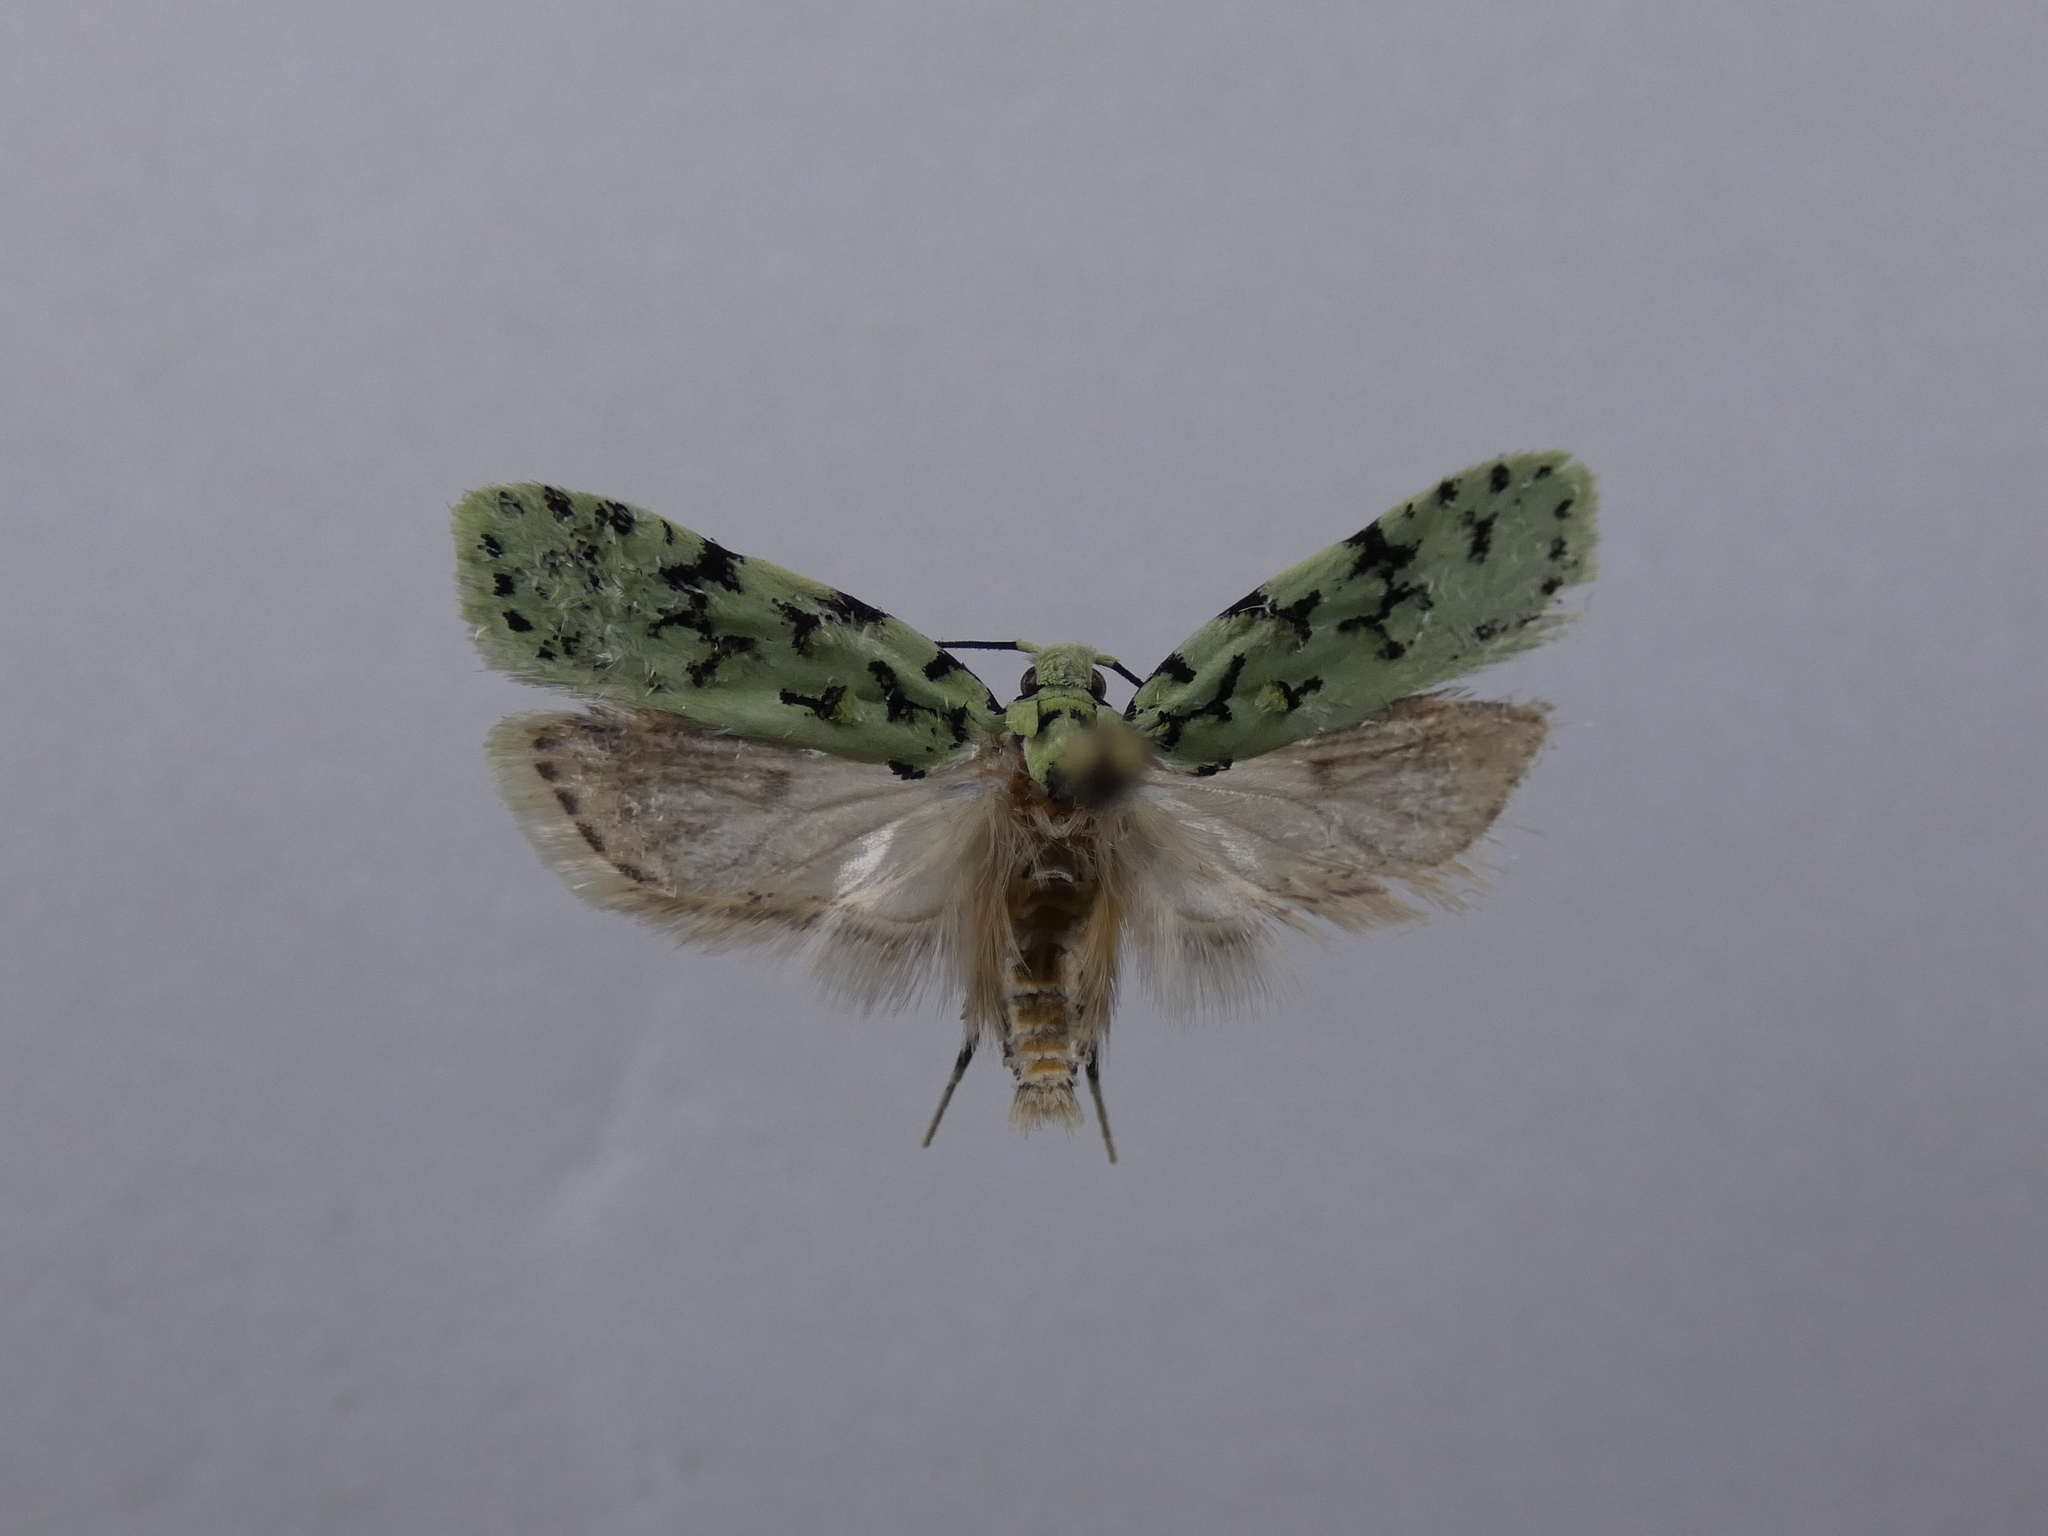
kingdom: Animalia
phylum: Arthropoda
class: Insecta
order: Lepidoptera
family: Oecophoridae
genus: Izatha
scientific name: Izatha huttoni
